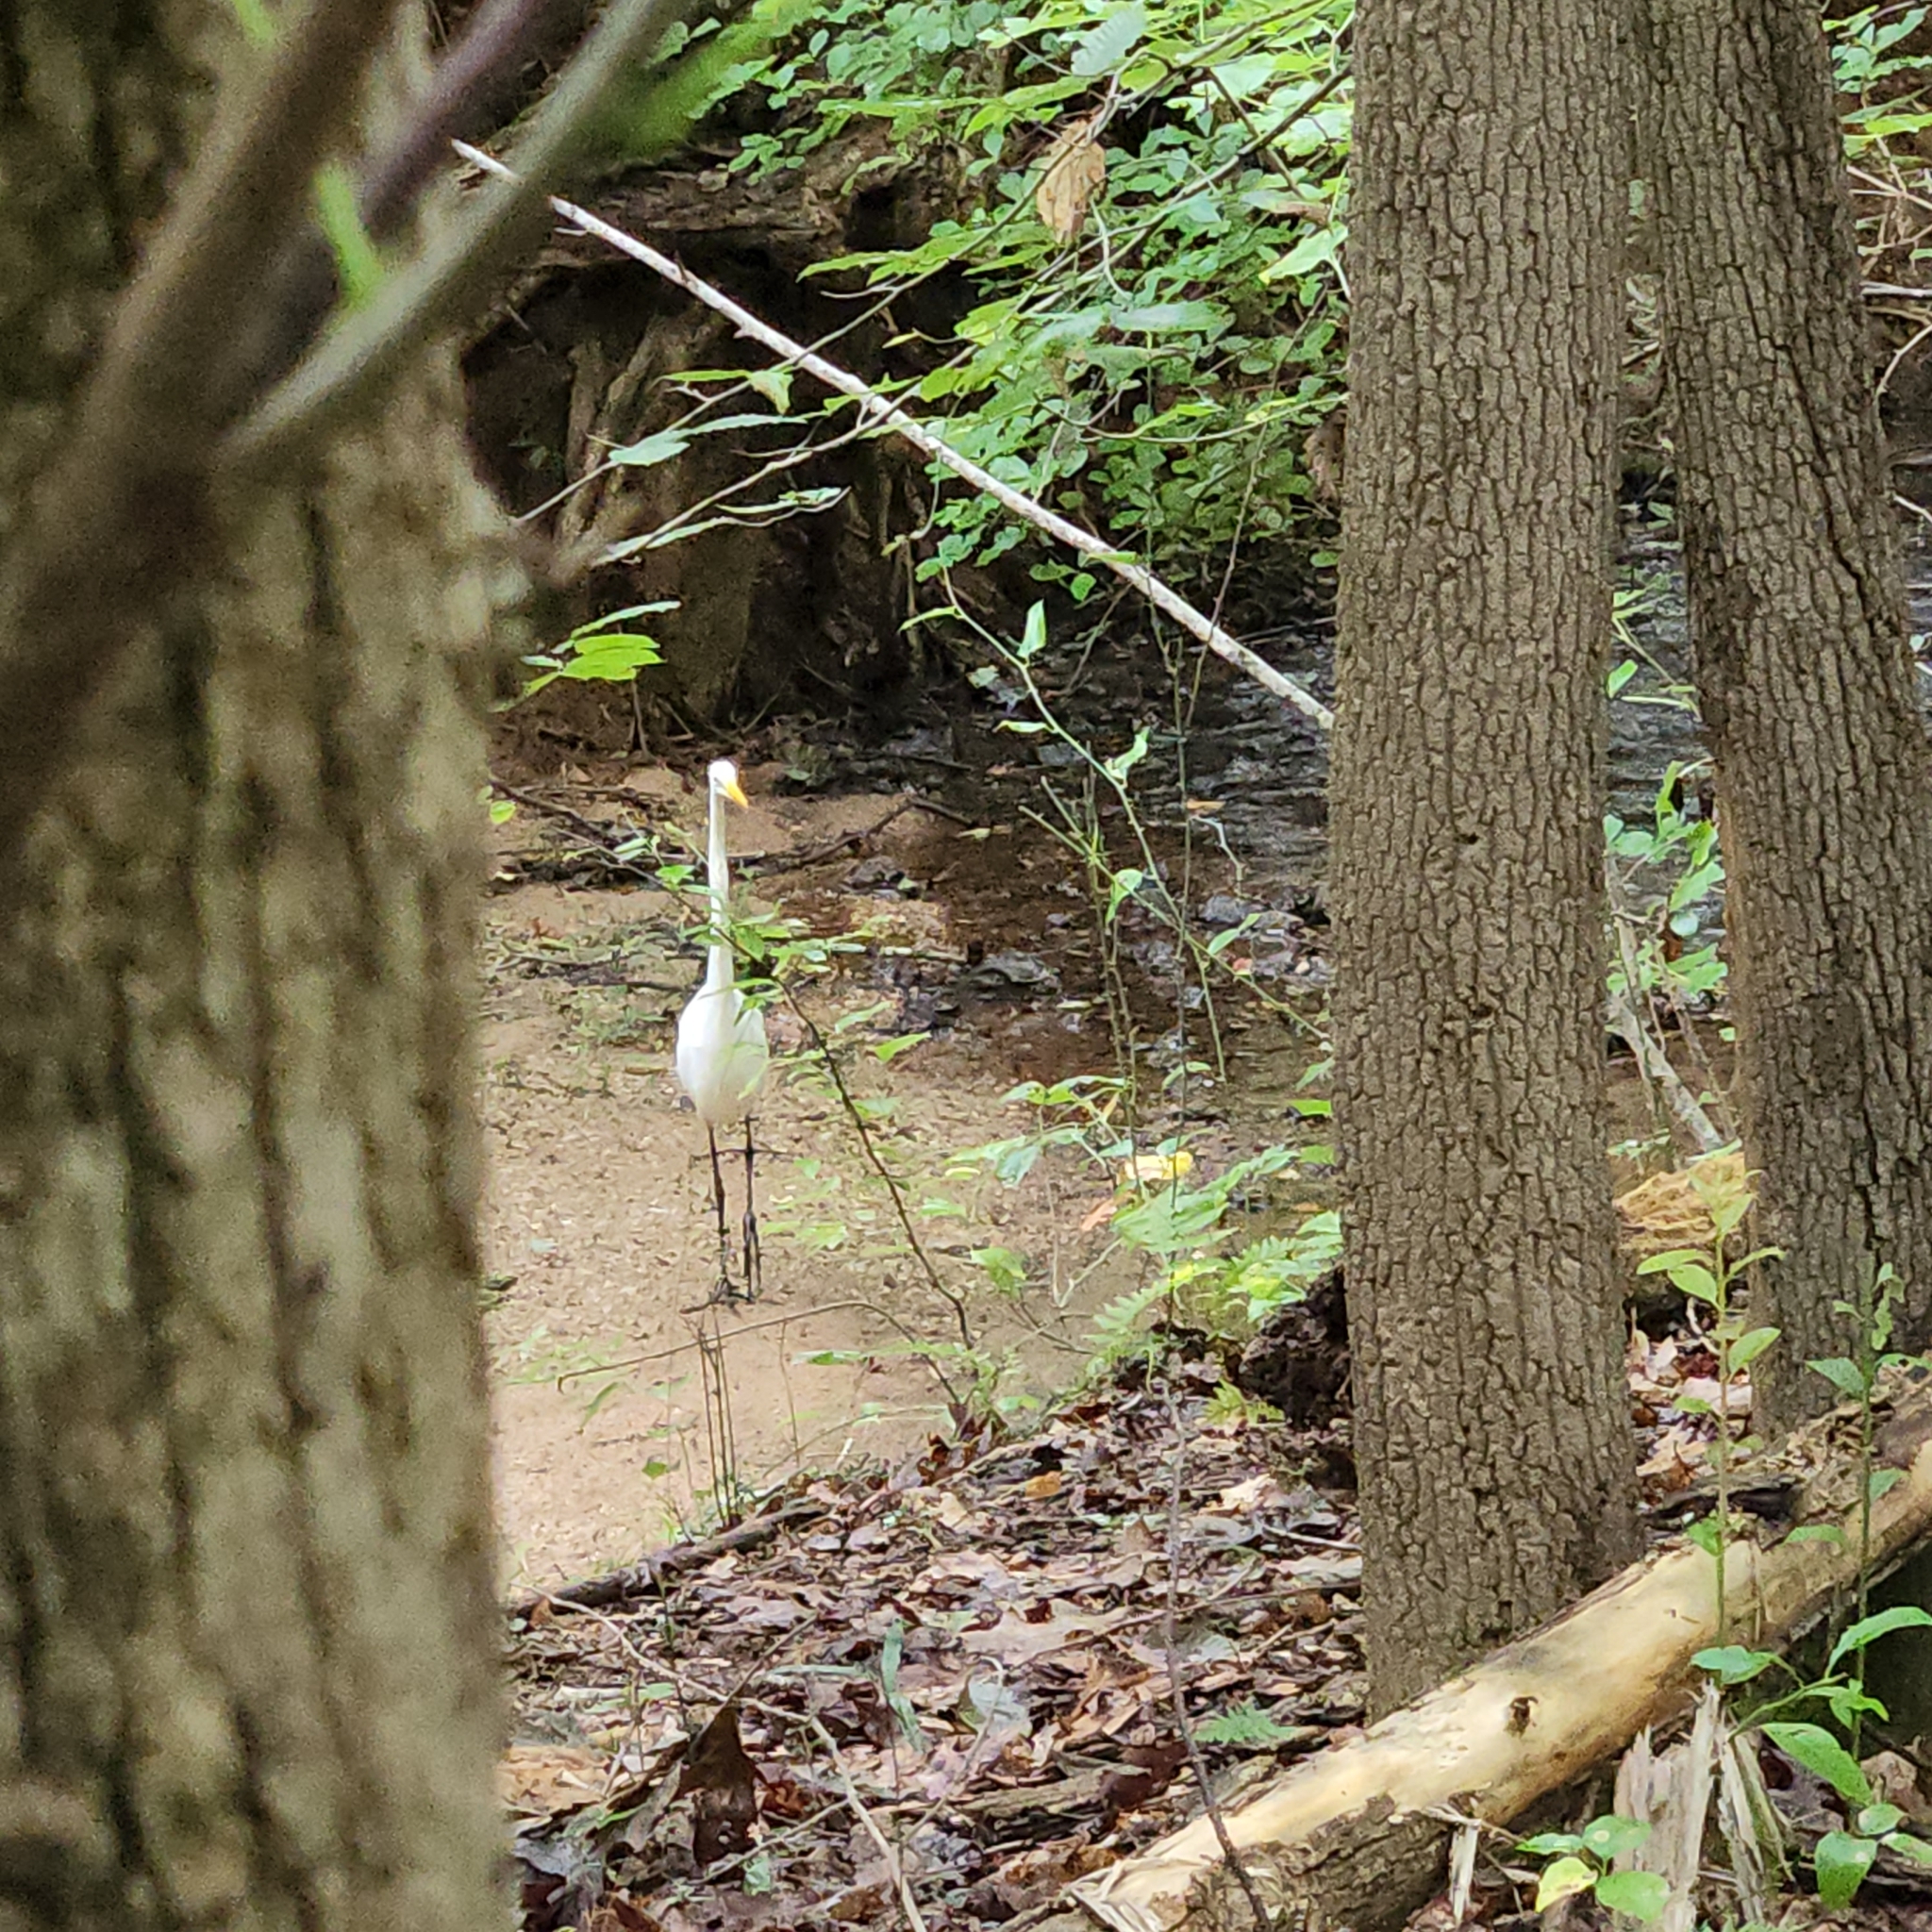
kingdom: Animalia
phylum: Chordata
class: Aves
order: Pelecaniformes
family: Ardeidae
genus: Ardea
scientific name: Ardea alba
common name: Great egret
